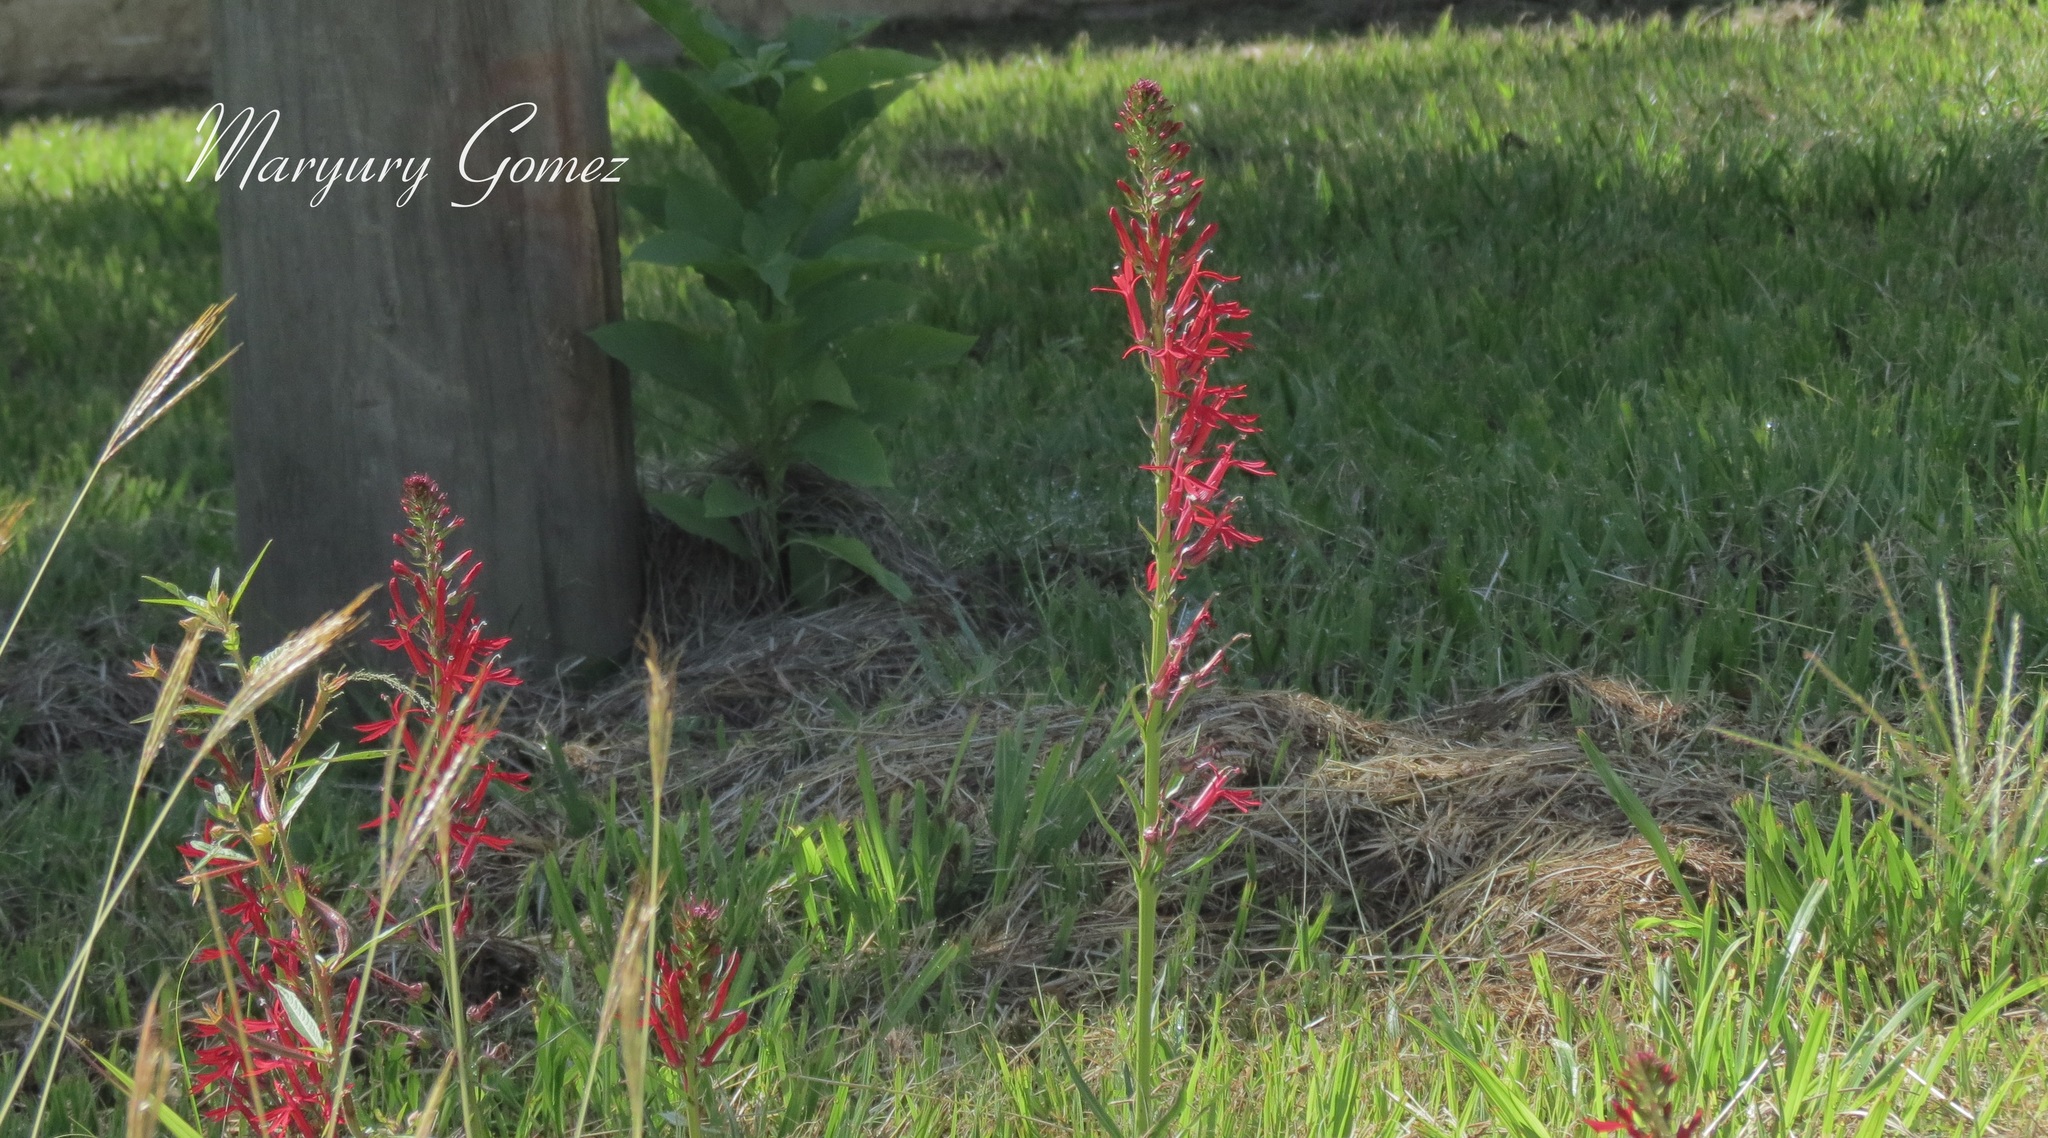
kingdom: Plantae
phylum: Tracheophyta
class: Magnoliopsida
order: Asterales
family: Campanulaceae
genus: Lobelia
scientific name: Lobelia cardinalis
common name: Cardinal flower
